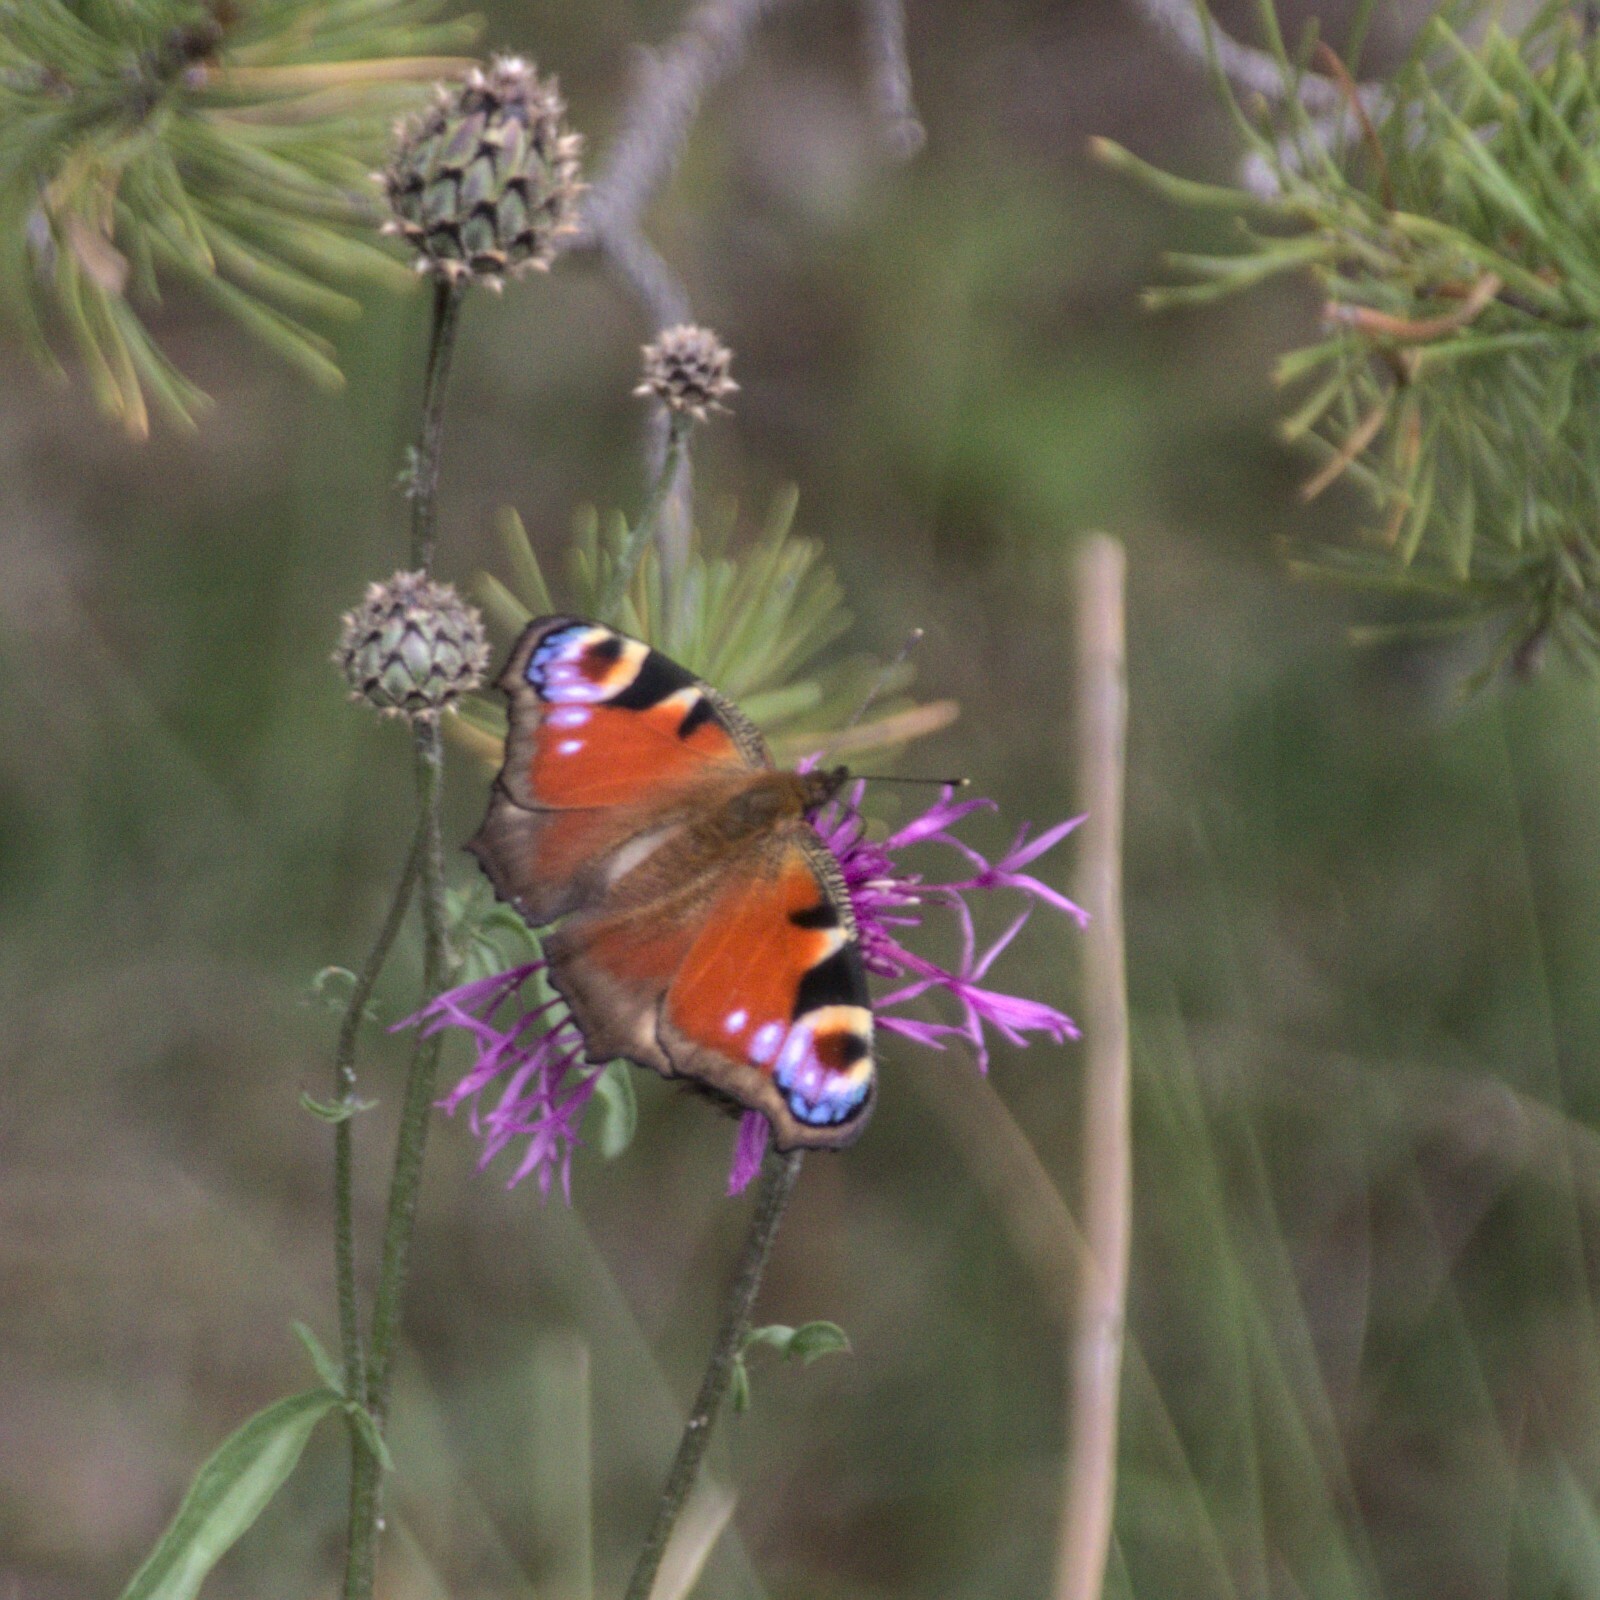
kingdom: Animalia
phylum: Arthropoda
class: Insecta
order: Lepidoptera
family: Nymphalidae
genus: Aglais
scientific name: Aglais io
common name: Peacock
